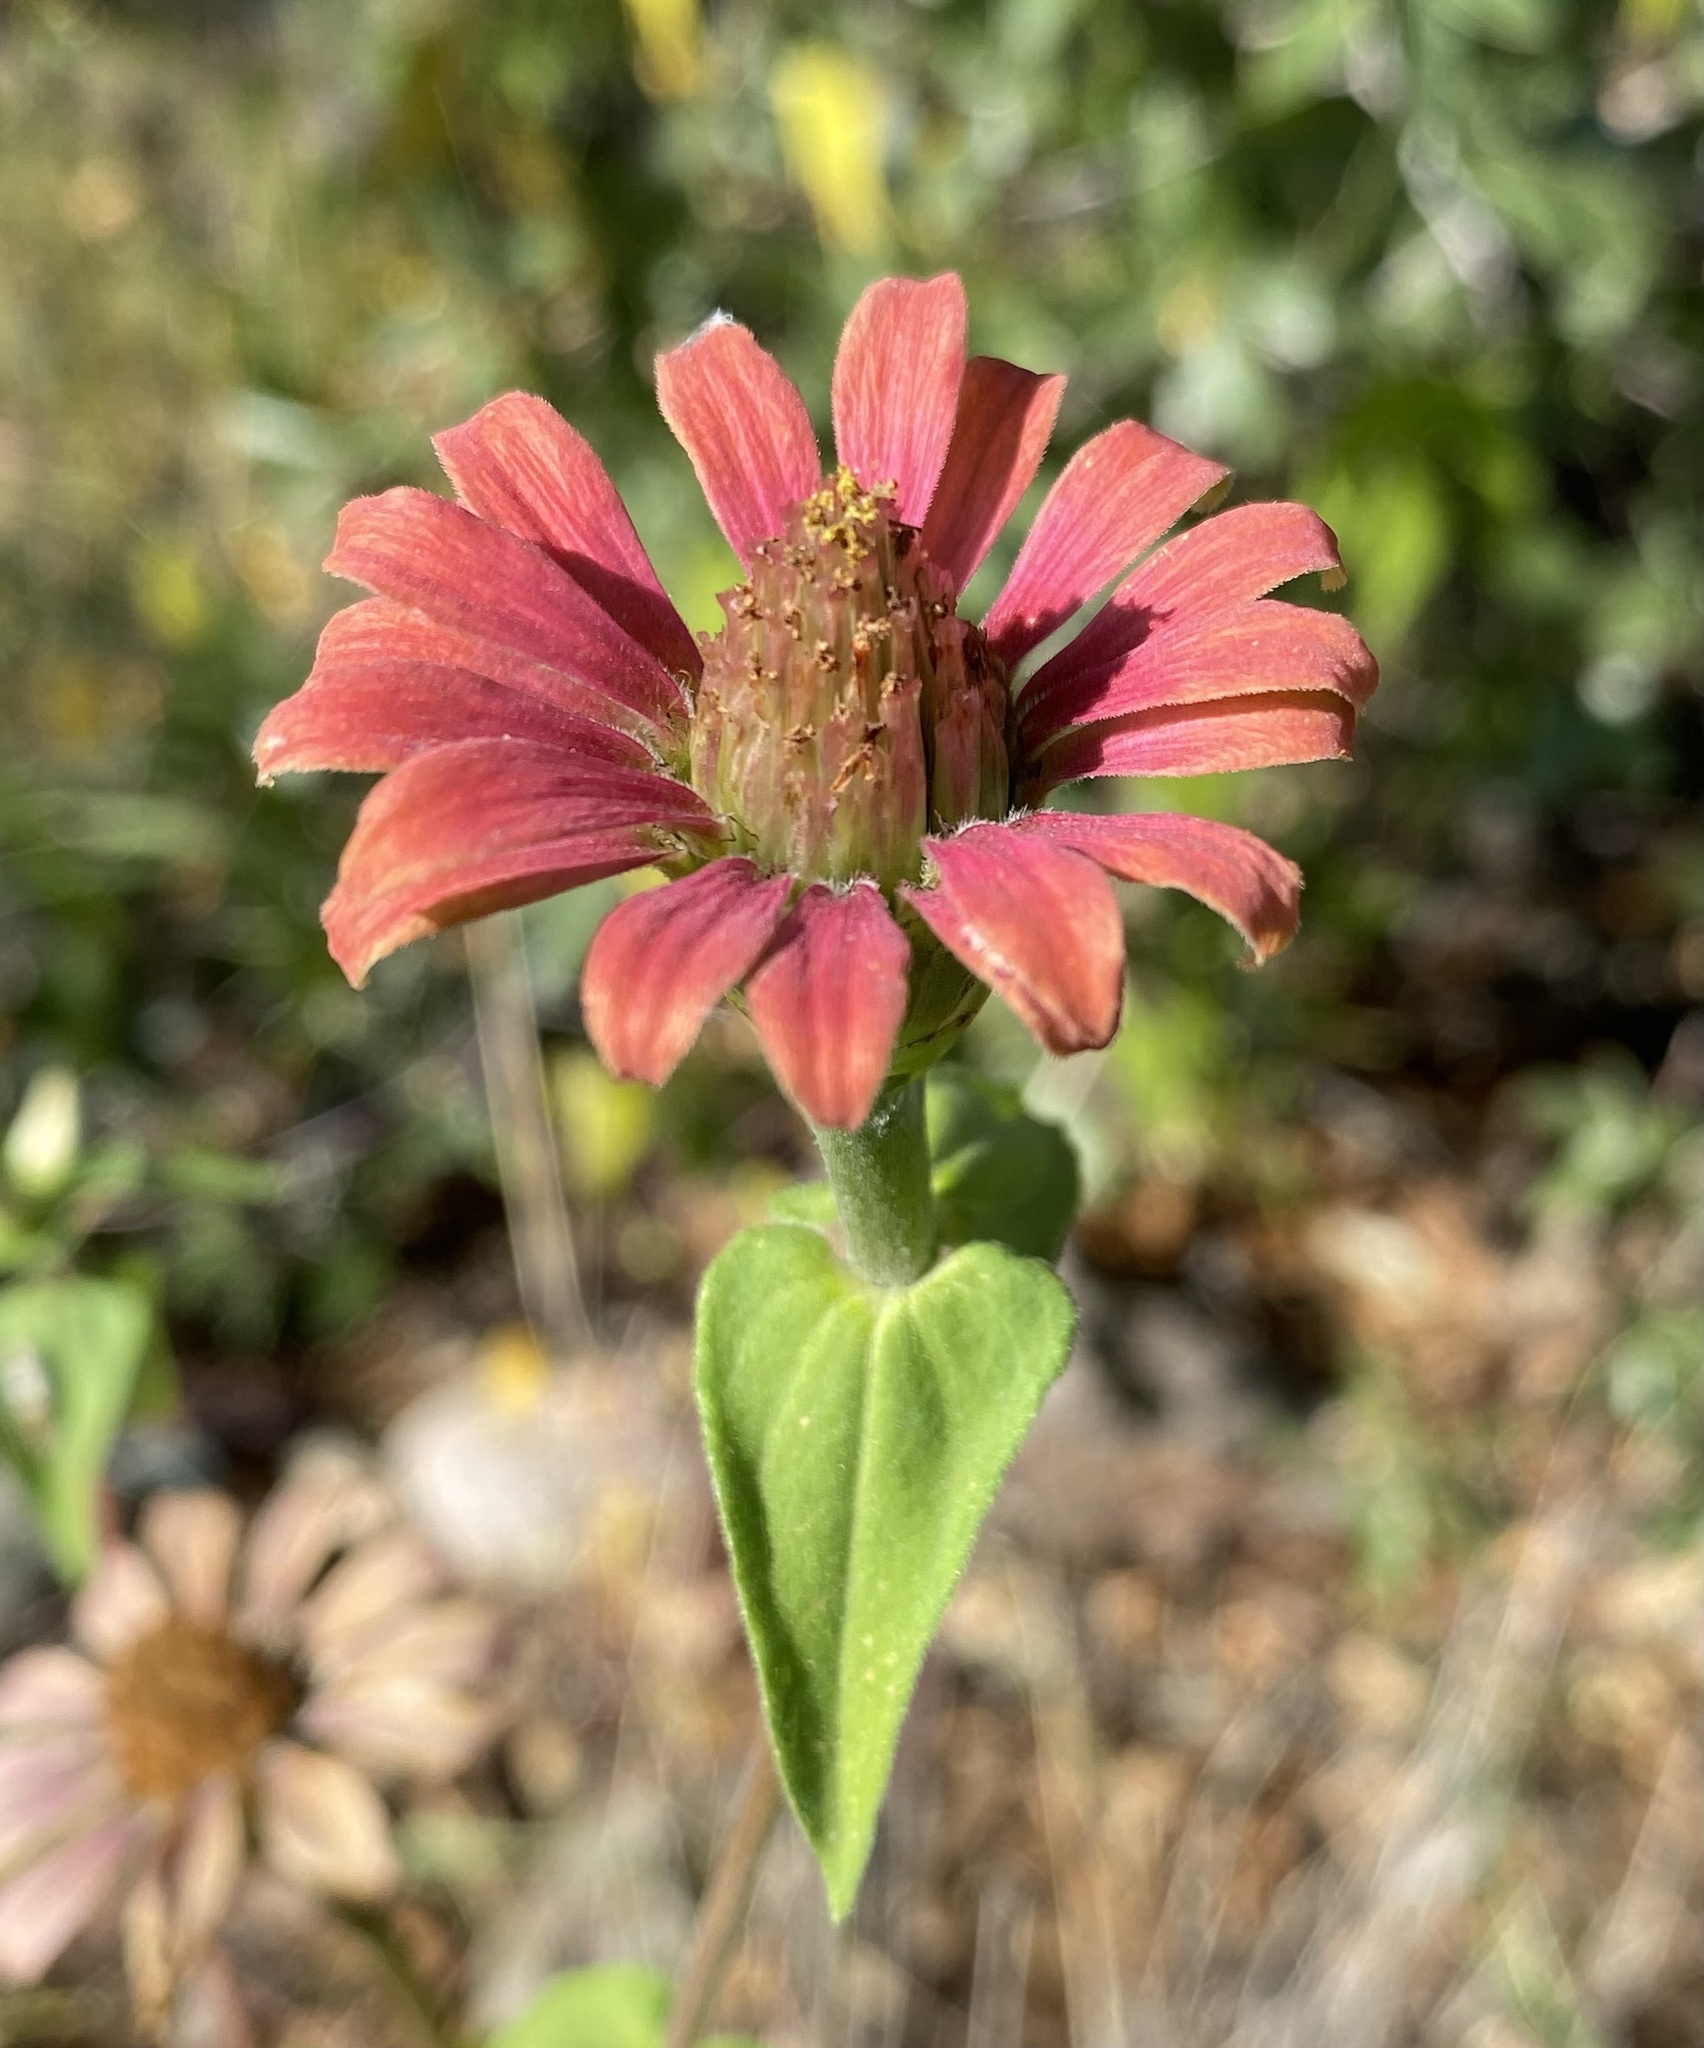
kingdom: Plantae
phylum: Tracheophyta
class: Magnoliopsida
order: Asterales
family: Asteraceae
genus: Zinnia
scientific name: Zinnia peruviana
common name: Peruvian zinnia
